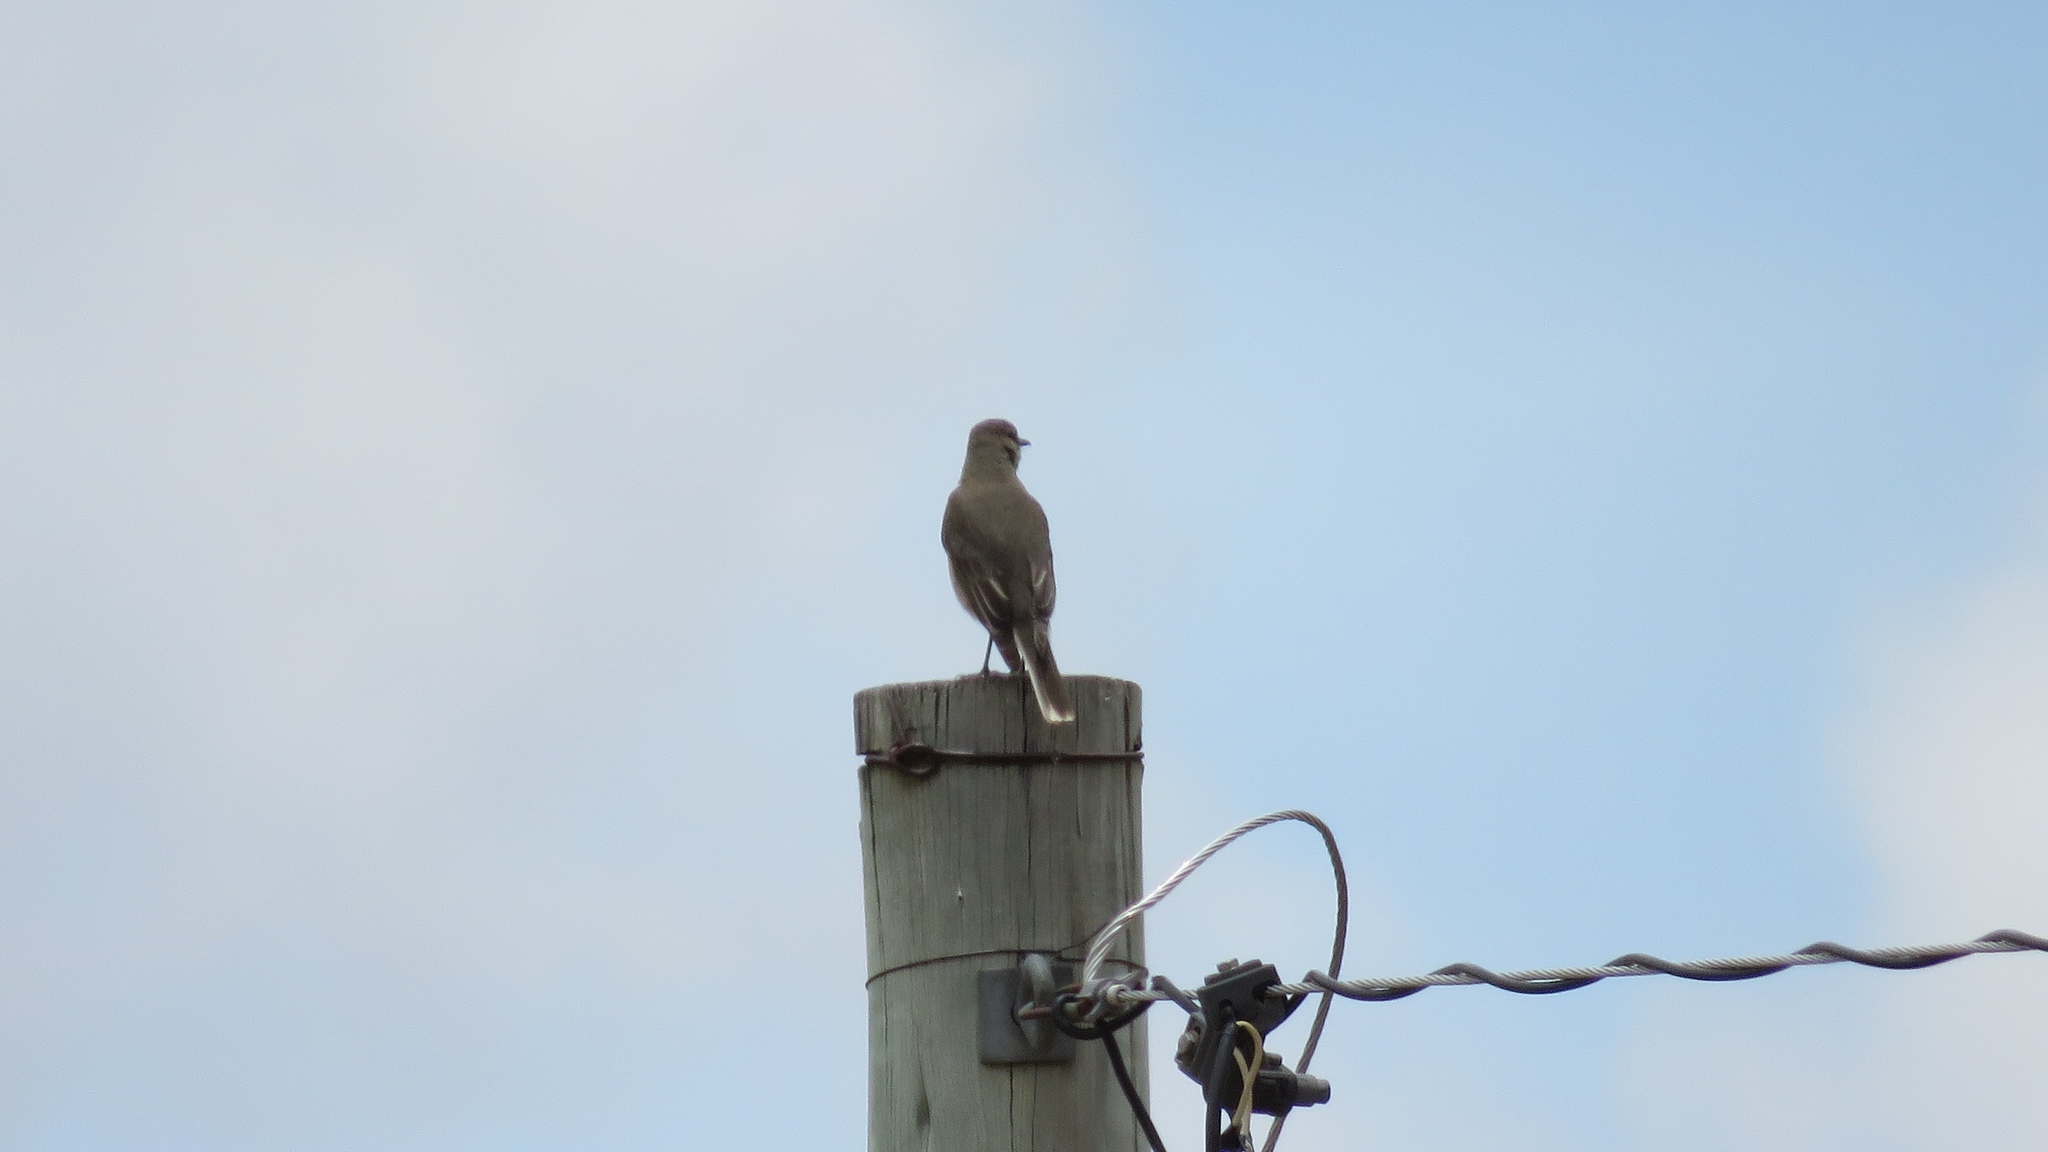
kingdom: Animalia
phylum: Chordata
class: Aves
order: Passeriformes
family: Tyrannidae
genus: Agriornis
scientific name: Agriornis montanus
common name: Black-billed shrike-tyrant
